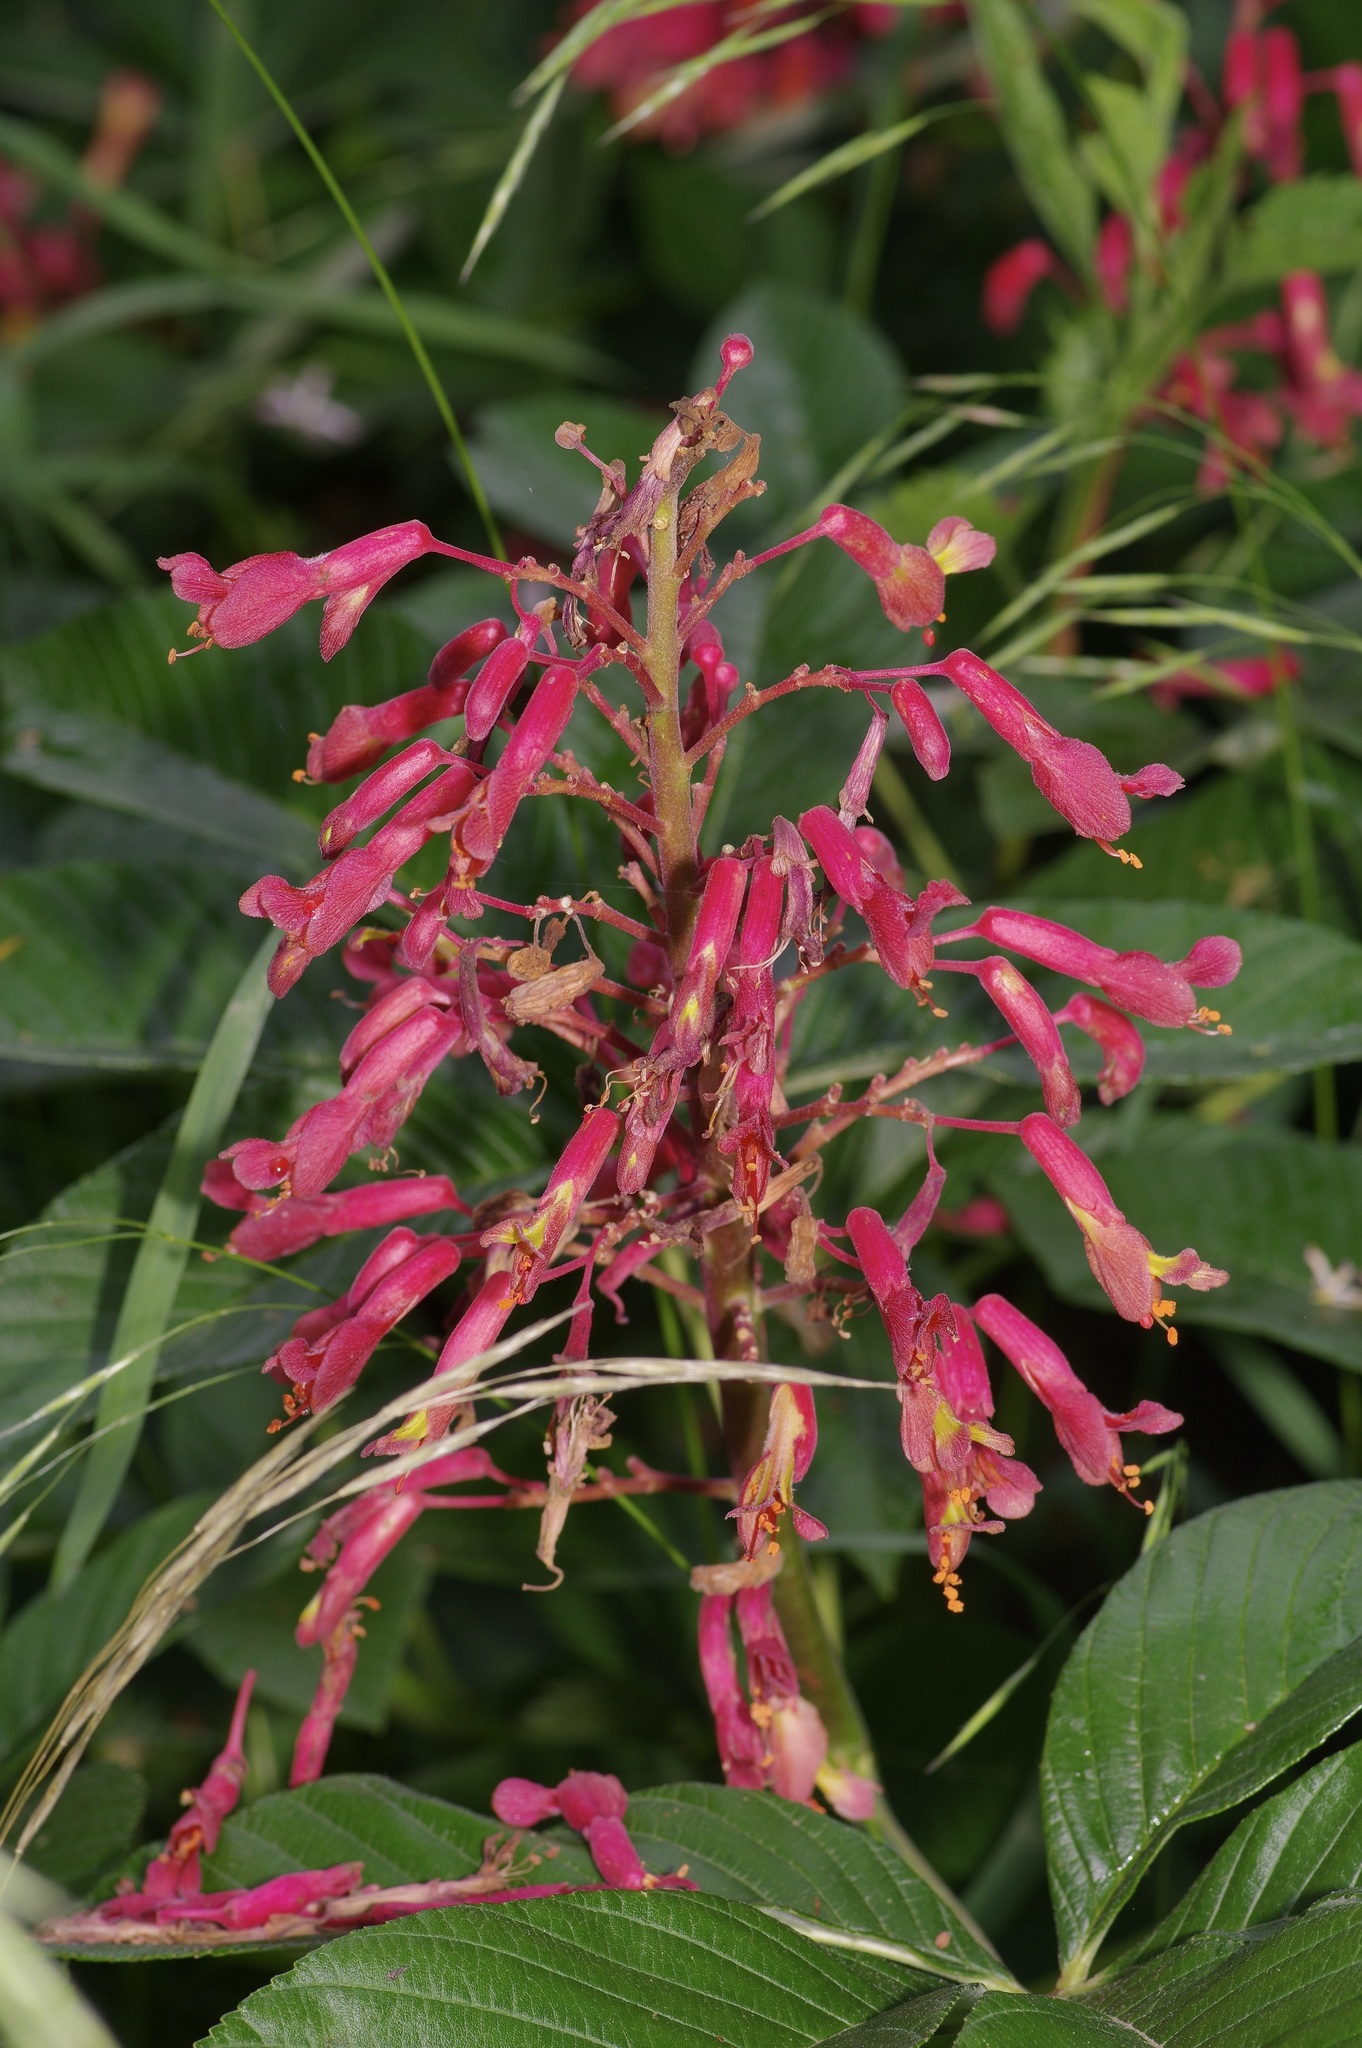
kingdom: Plantae
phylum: Tracheophyta
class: Magnoliopsida
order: Sapindales
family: Sapindaceae
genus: Aesculus
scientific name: Aesculus pavia
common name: Red buckeye
